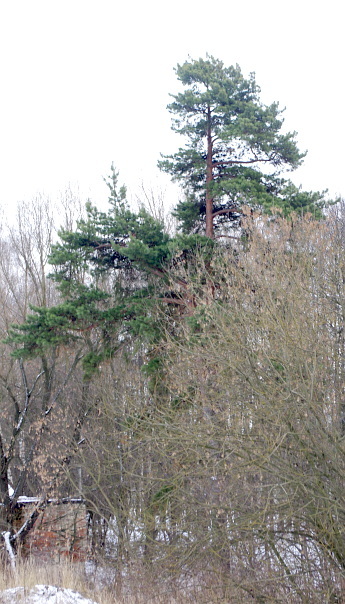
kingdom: Plantae
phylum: Tracheophyta
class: Pinopsida
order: Pinales
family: Pinaceae
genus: Pinus
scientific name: Pinus sylvestris
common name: Scots pine
